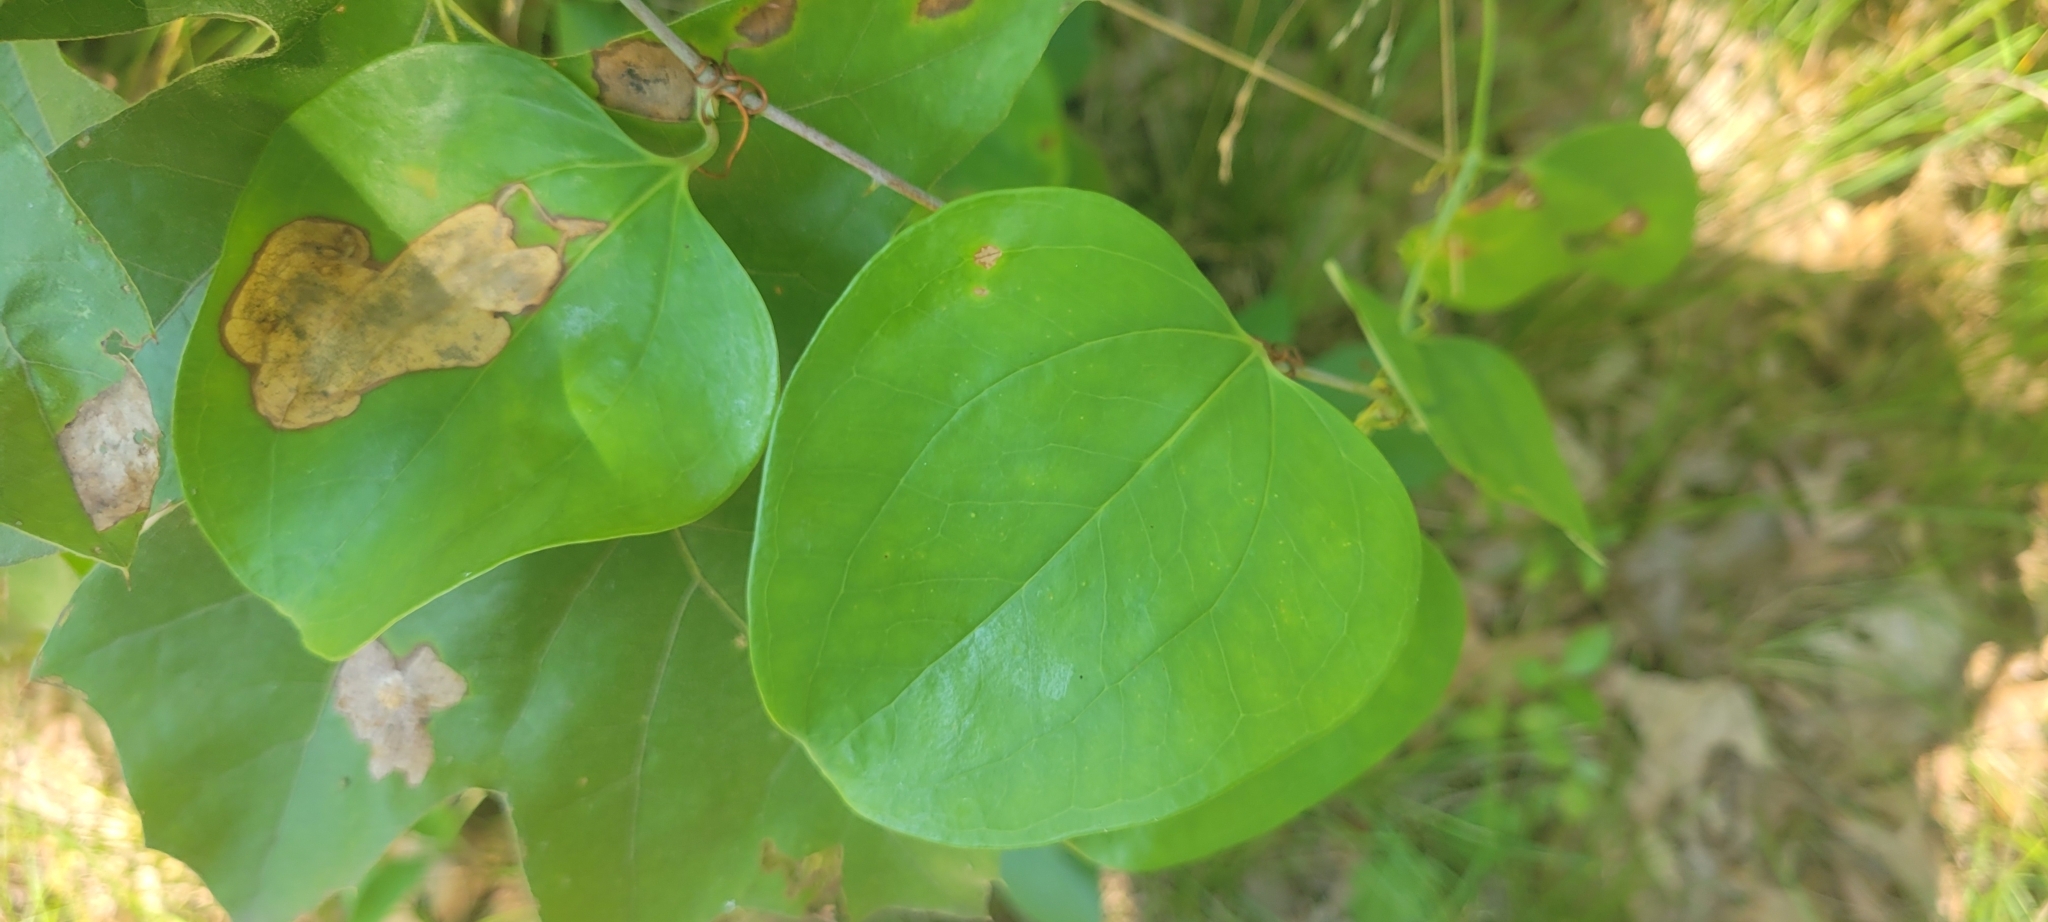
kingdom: Plantae
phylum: Tracheophyta
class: Liliopsida
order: Liliales
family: Smilacaceae
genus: Smilax
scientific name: Smilax rotundifolia
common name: Bullbriar
